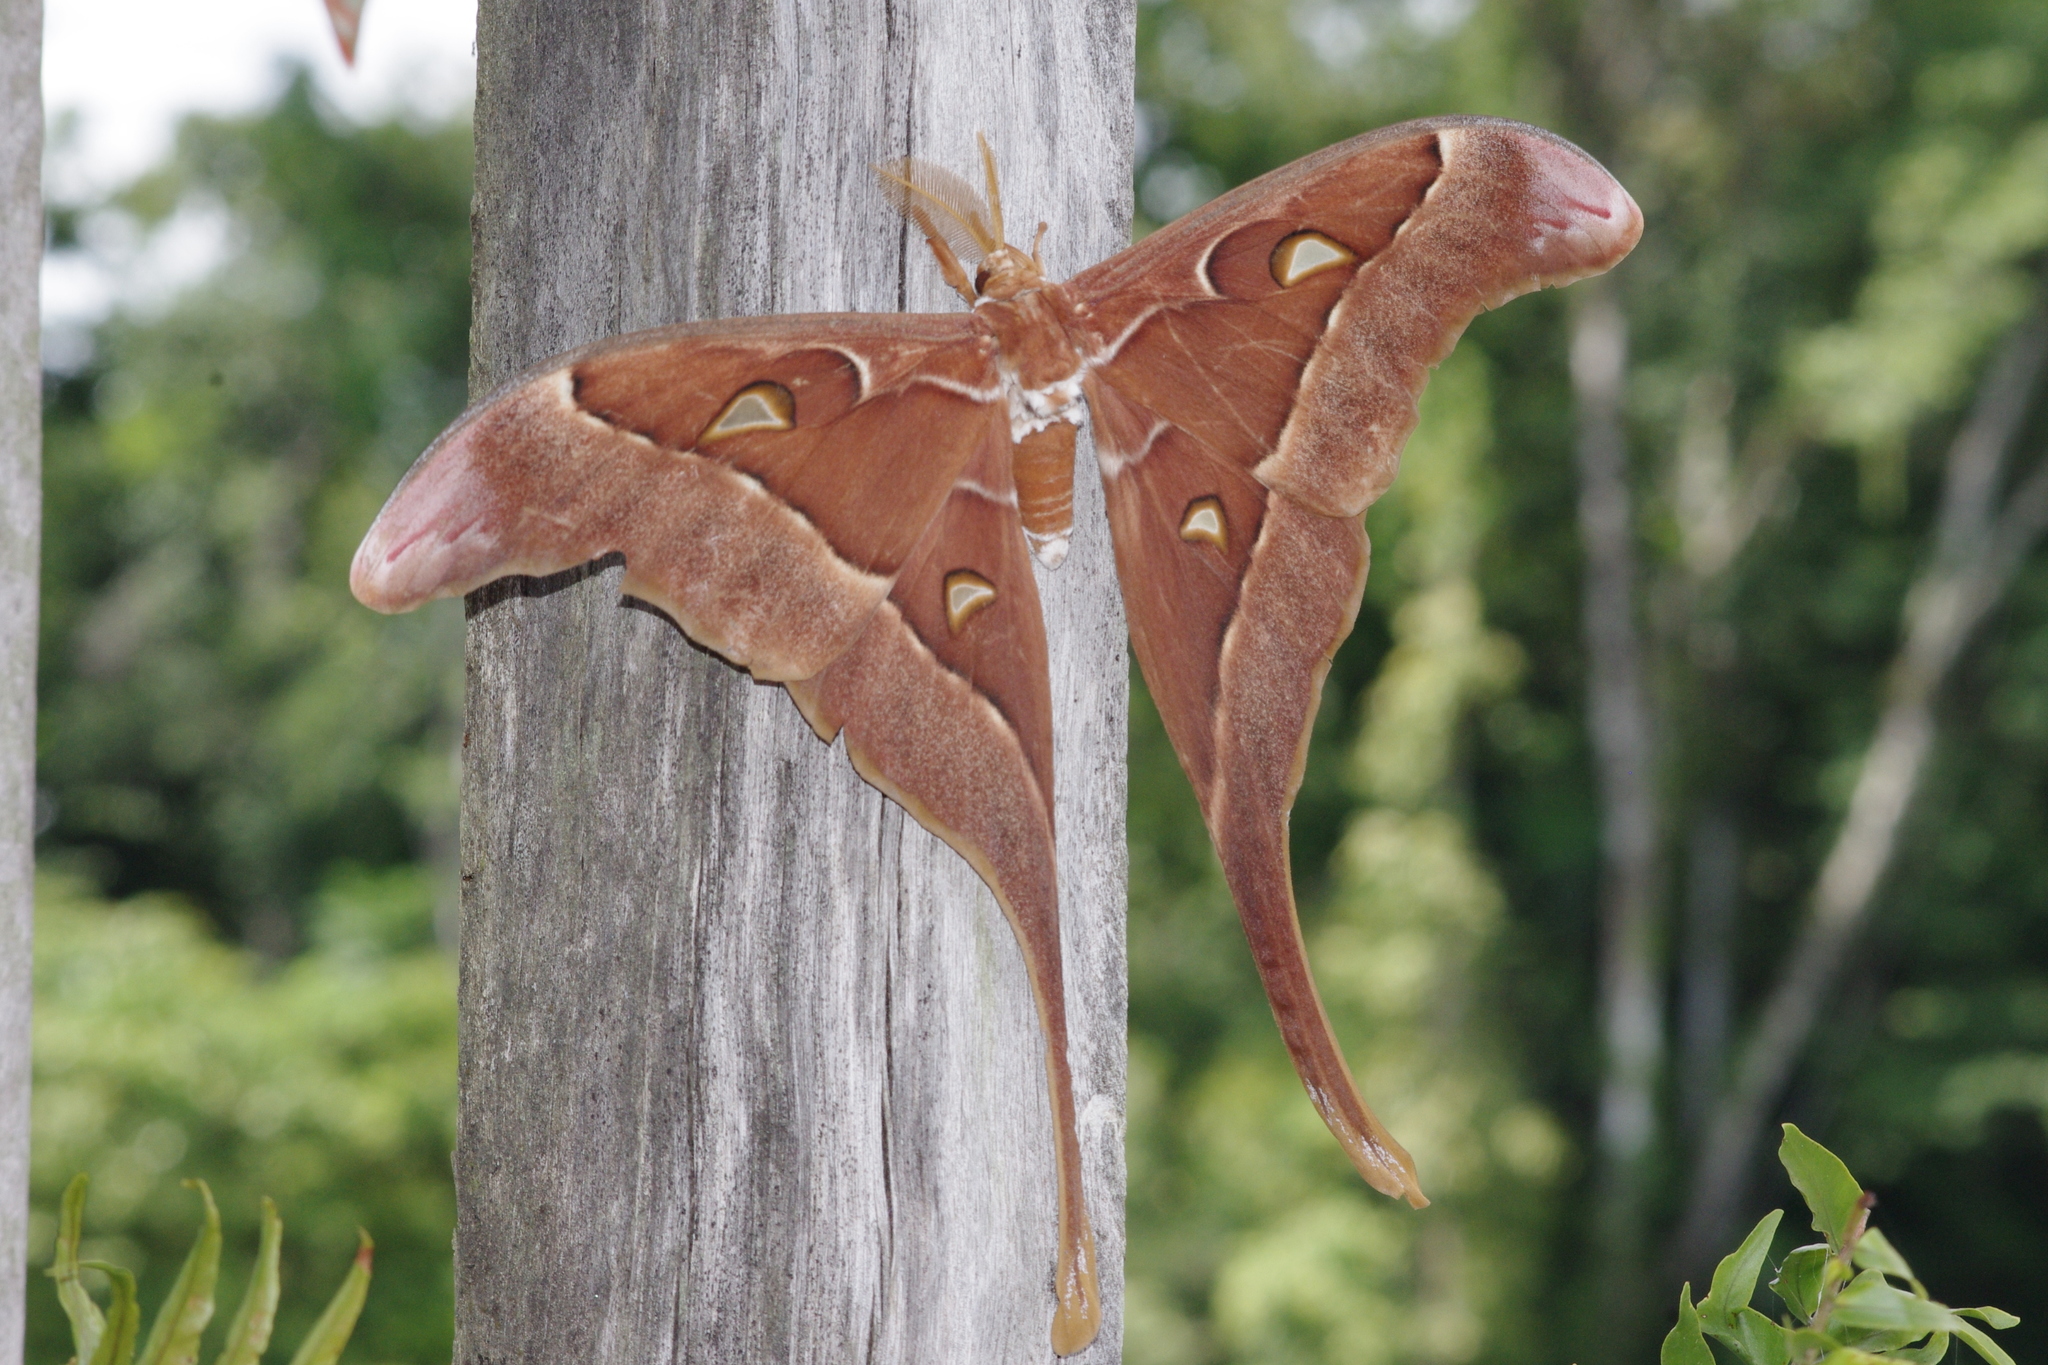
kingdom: Animalia
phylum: Arthropoda
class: Insecta
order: Lepidoptera
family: Saturniidae
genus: Coscinocera
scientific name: Coscinocera hercules
